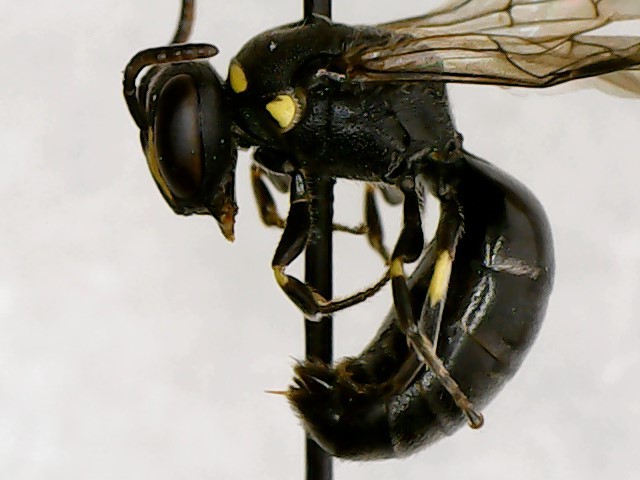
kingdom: Animalia
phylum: Arthropoda
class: Insecta
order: Hymenoptera
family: Colletidae
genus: Hylaeus
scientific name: Hylaeus modestus
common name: Yellow-faced bee
